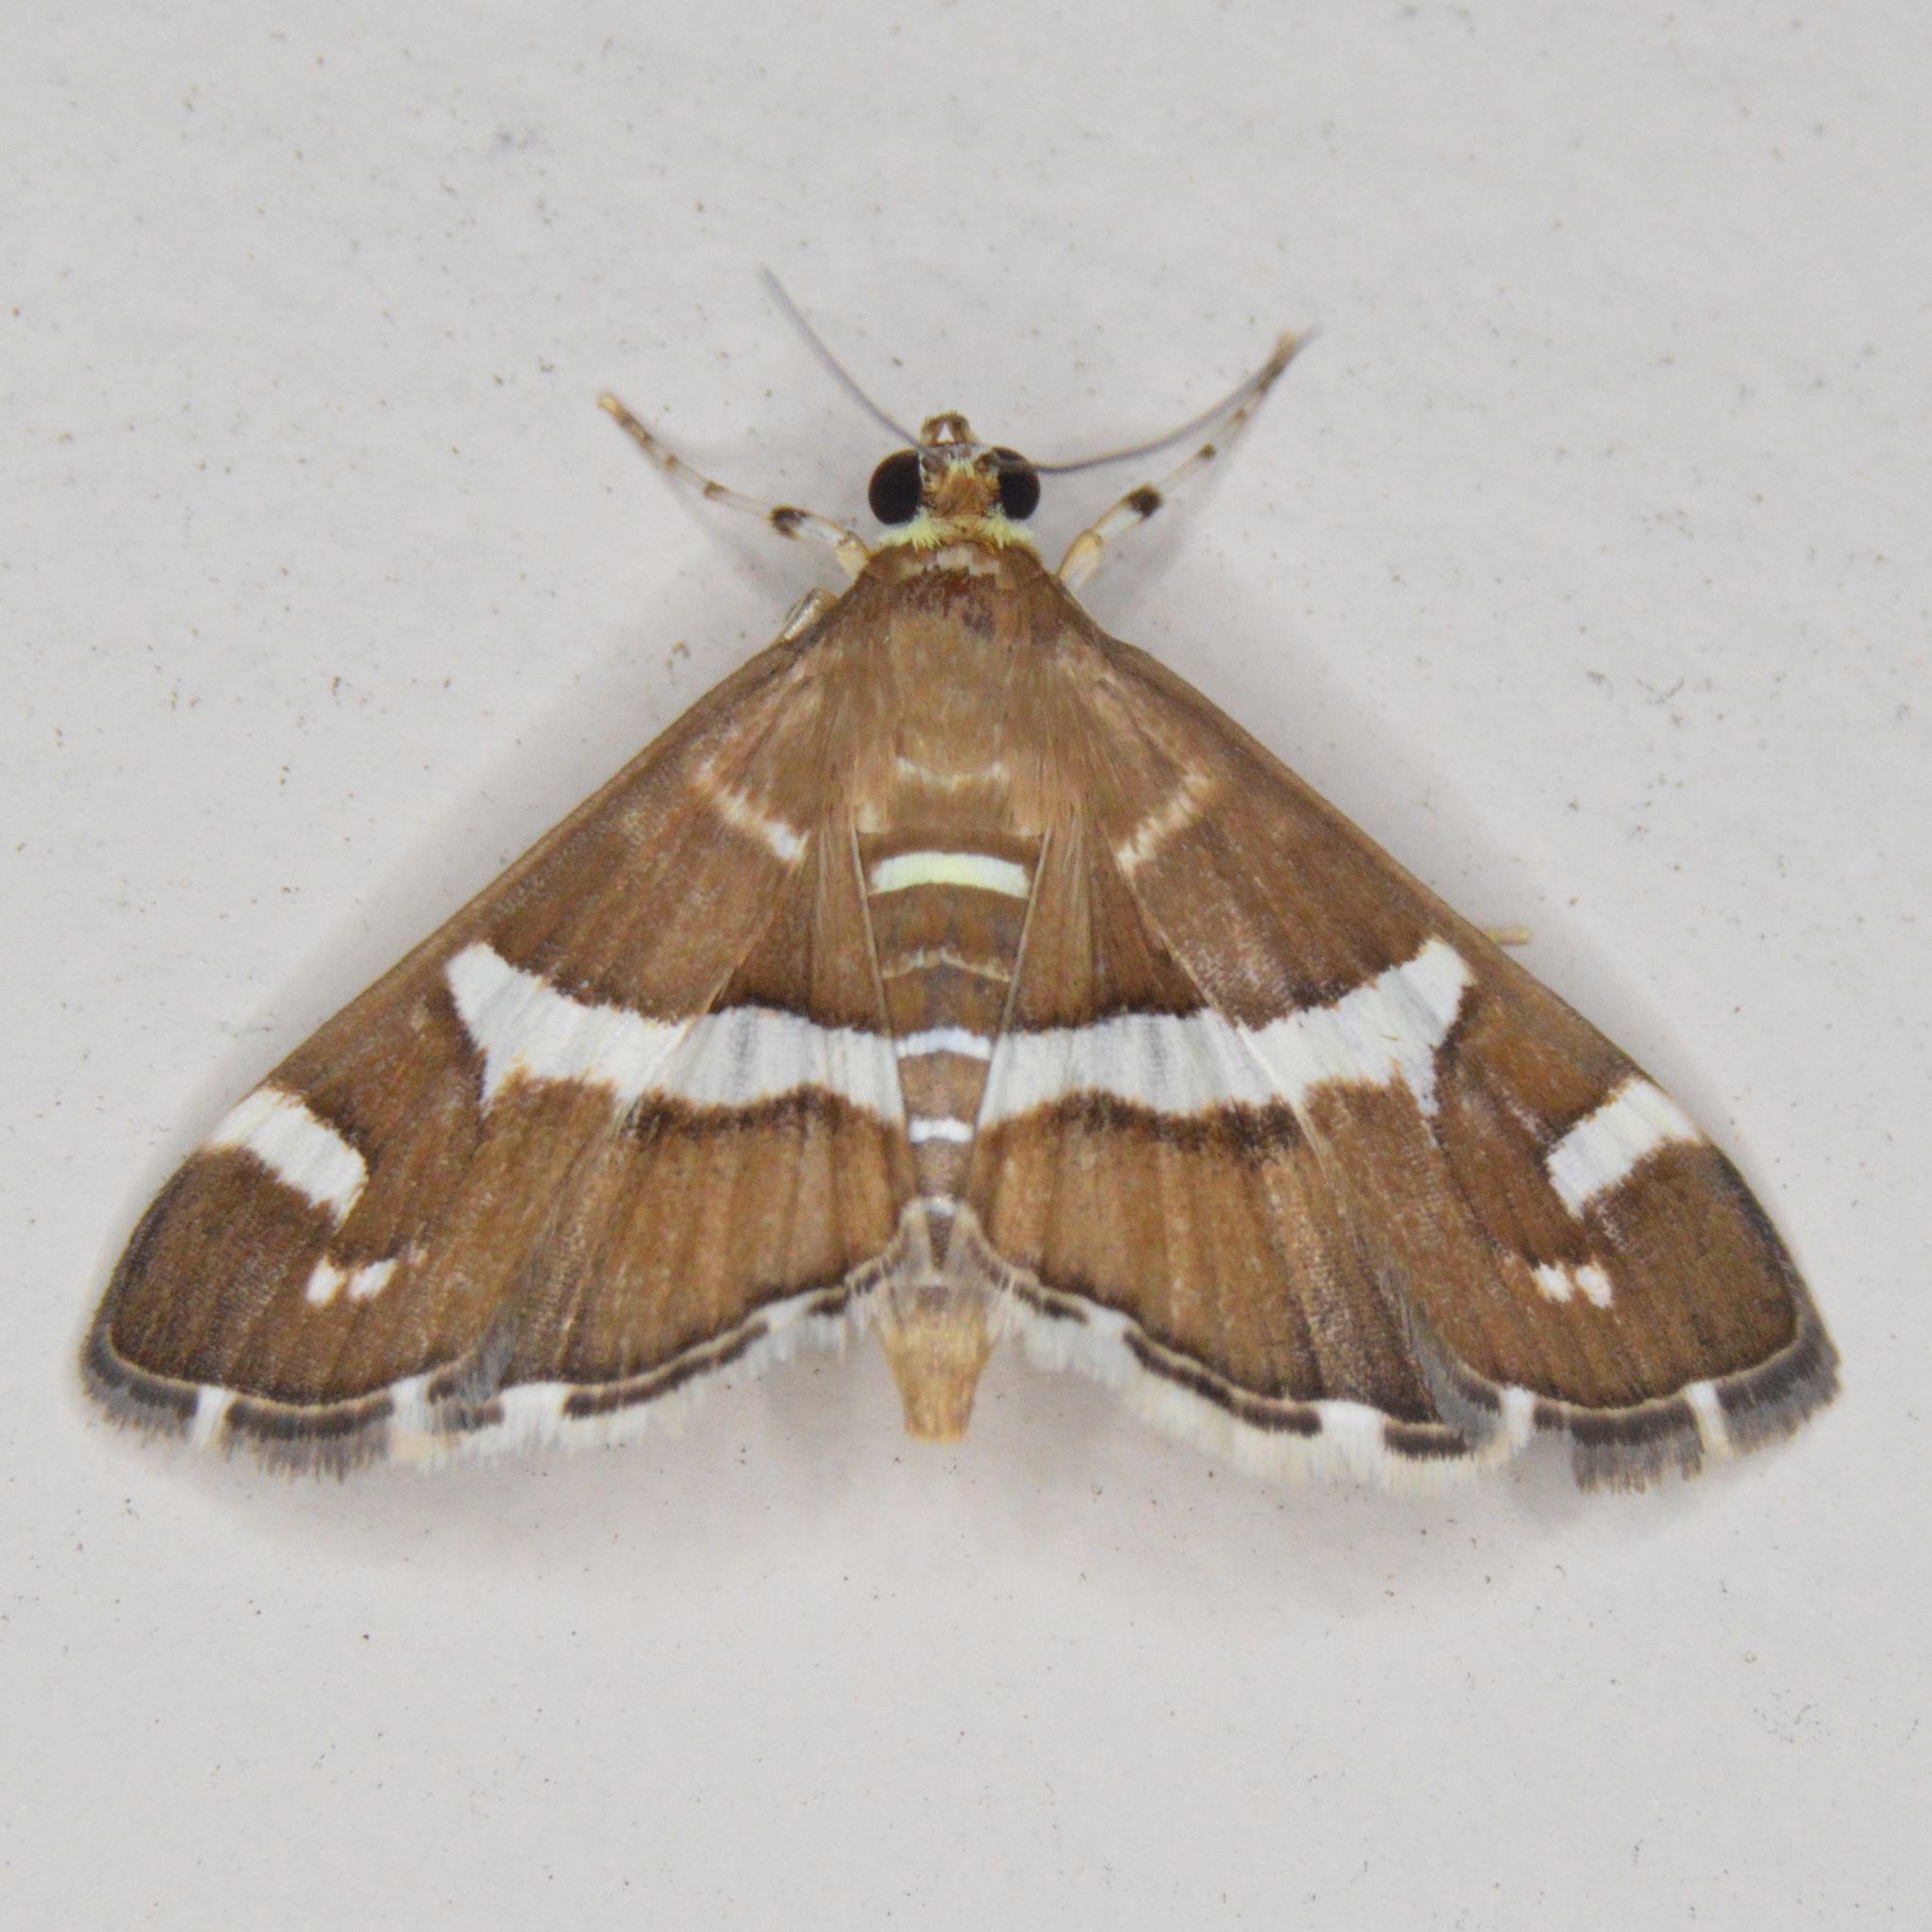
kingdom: Animalia
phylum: Arthropoda
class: Insecta
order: Lepidoptera
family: Crambidae
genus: Spoladea
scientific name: Spoladea recurvalis
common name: Beet webworm moth
